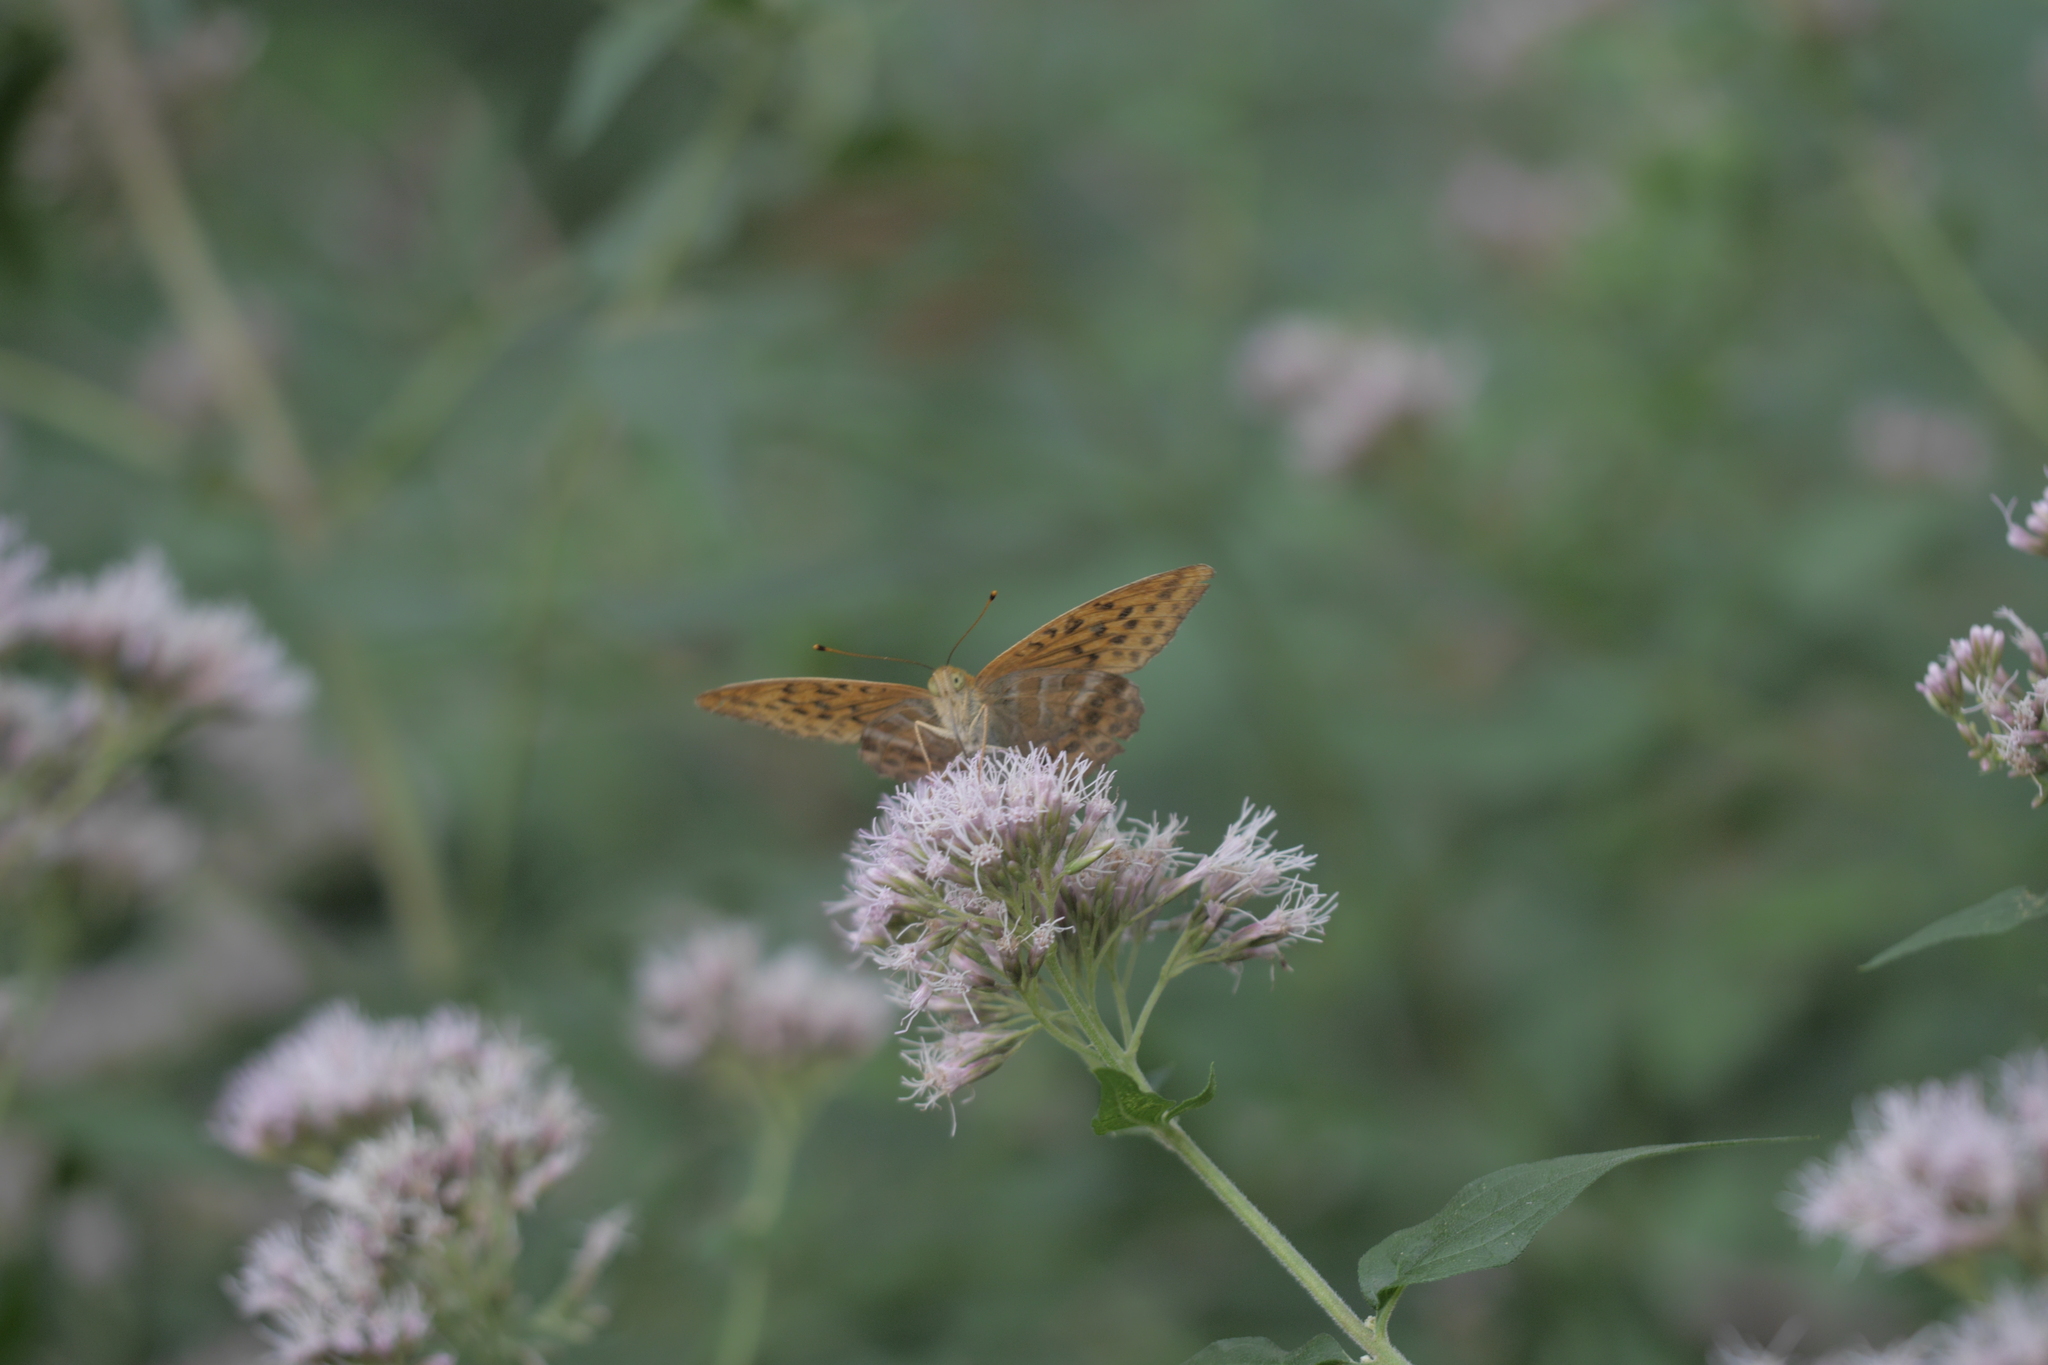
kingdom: Animalia
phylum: Arthropoda
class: Insecta
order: Lepidoptera
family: Nymphalidae
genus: Argynnis
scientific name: Argynnis paphia
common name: Silver-washed fritillary
